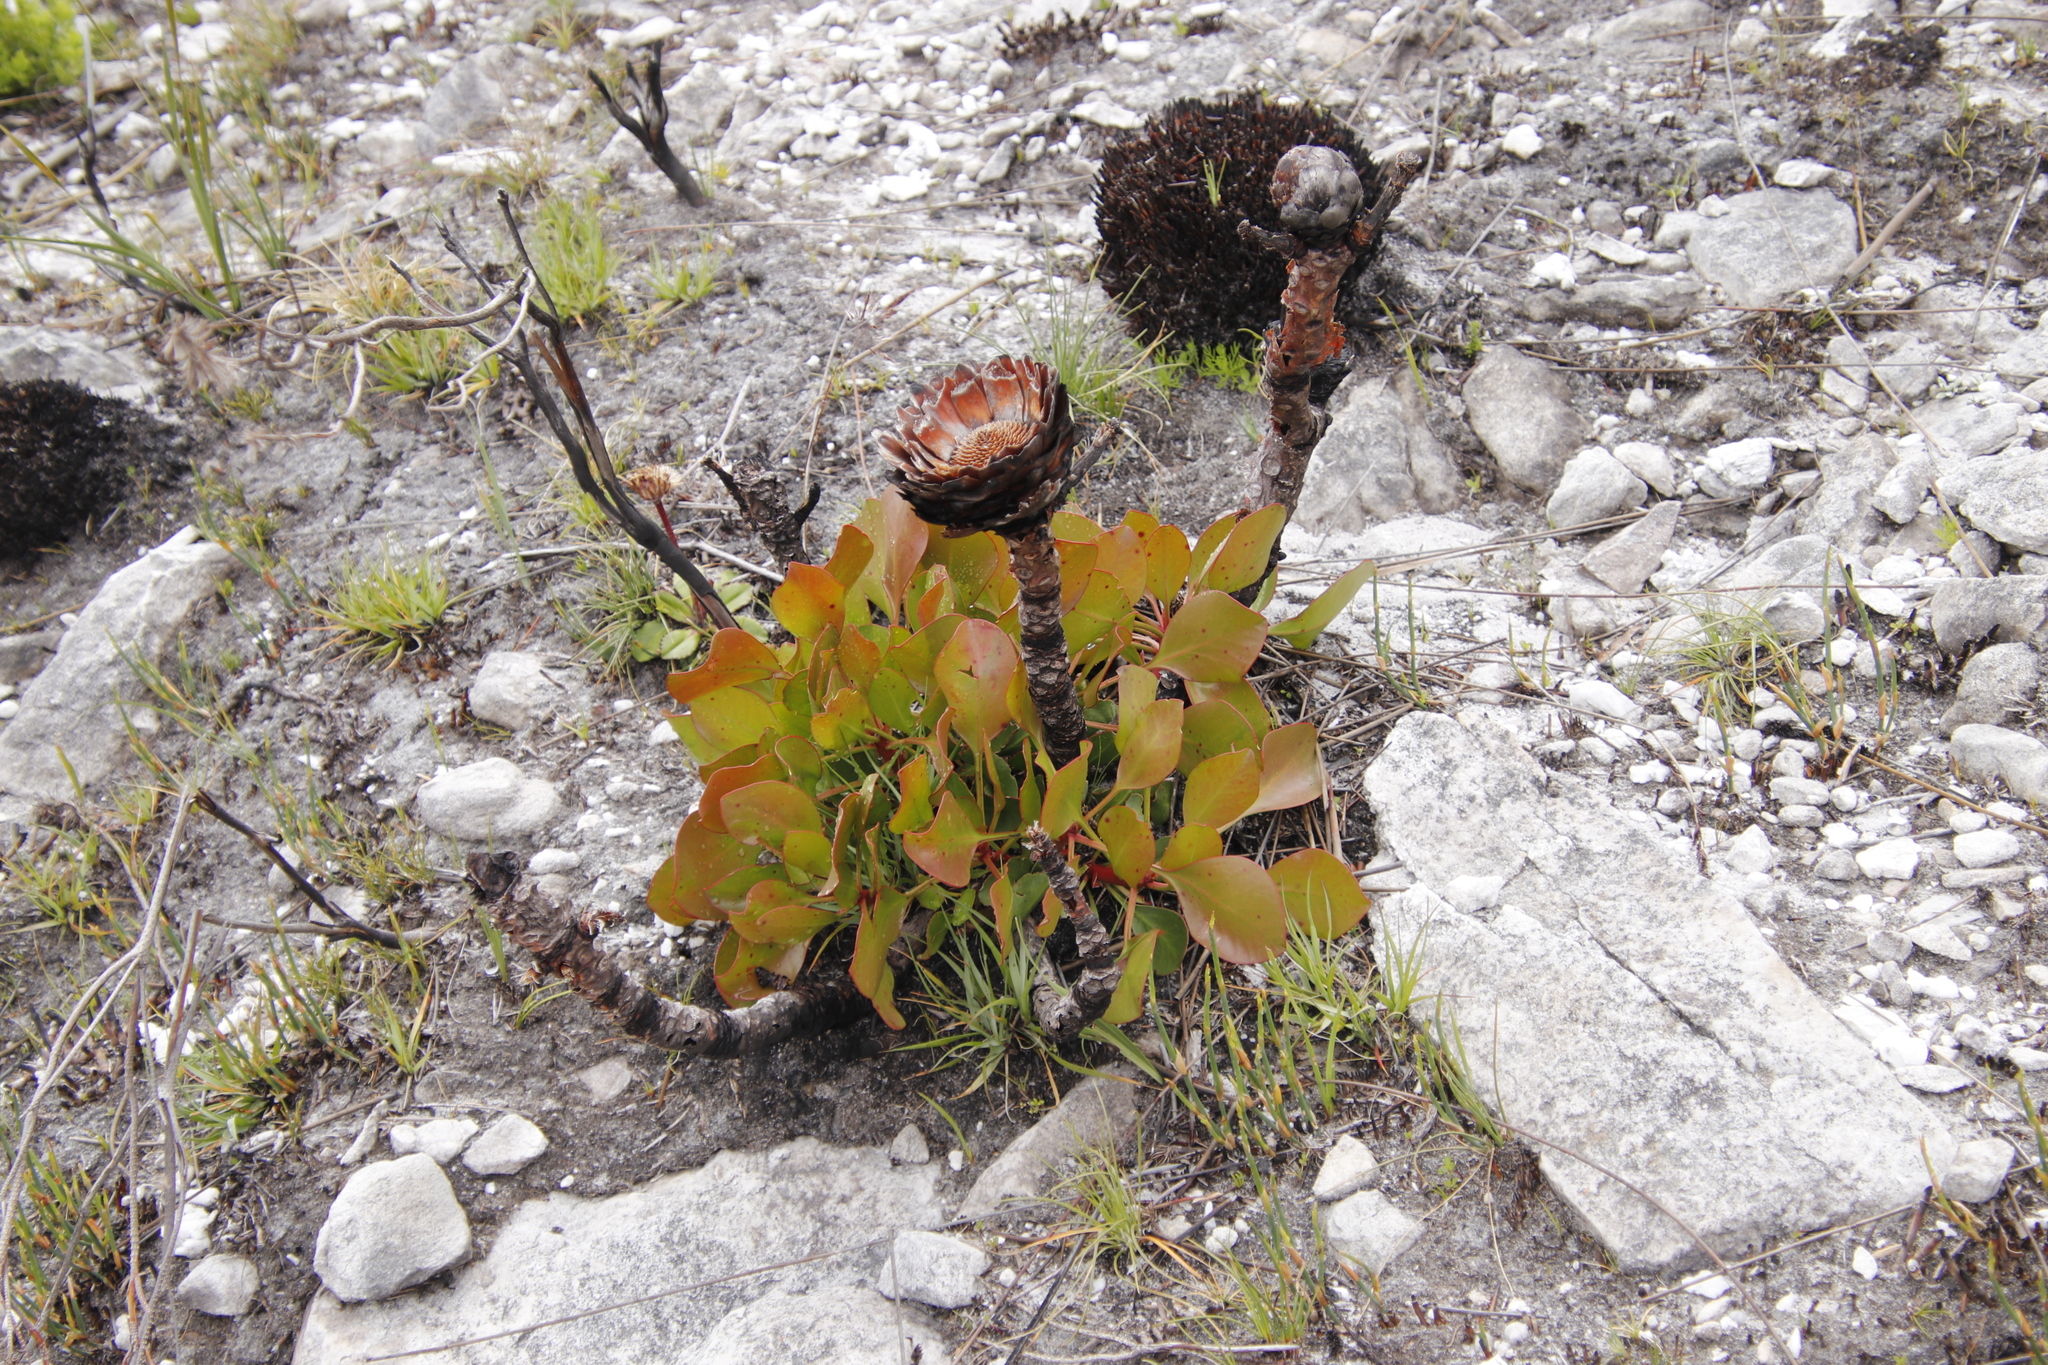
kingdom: Plantae
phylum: Tracheophyta
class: Magnoliopsida
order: Proteales
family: Proteaceae
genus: Protea
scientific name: Protea cynaroides
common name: King protea
